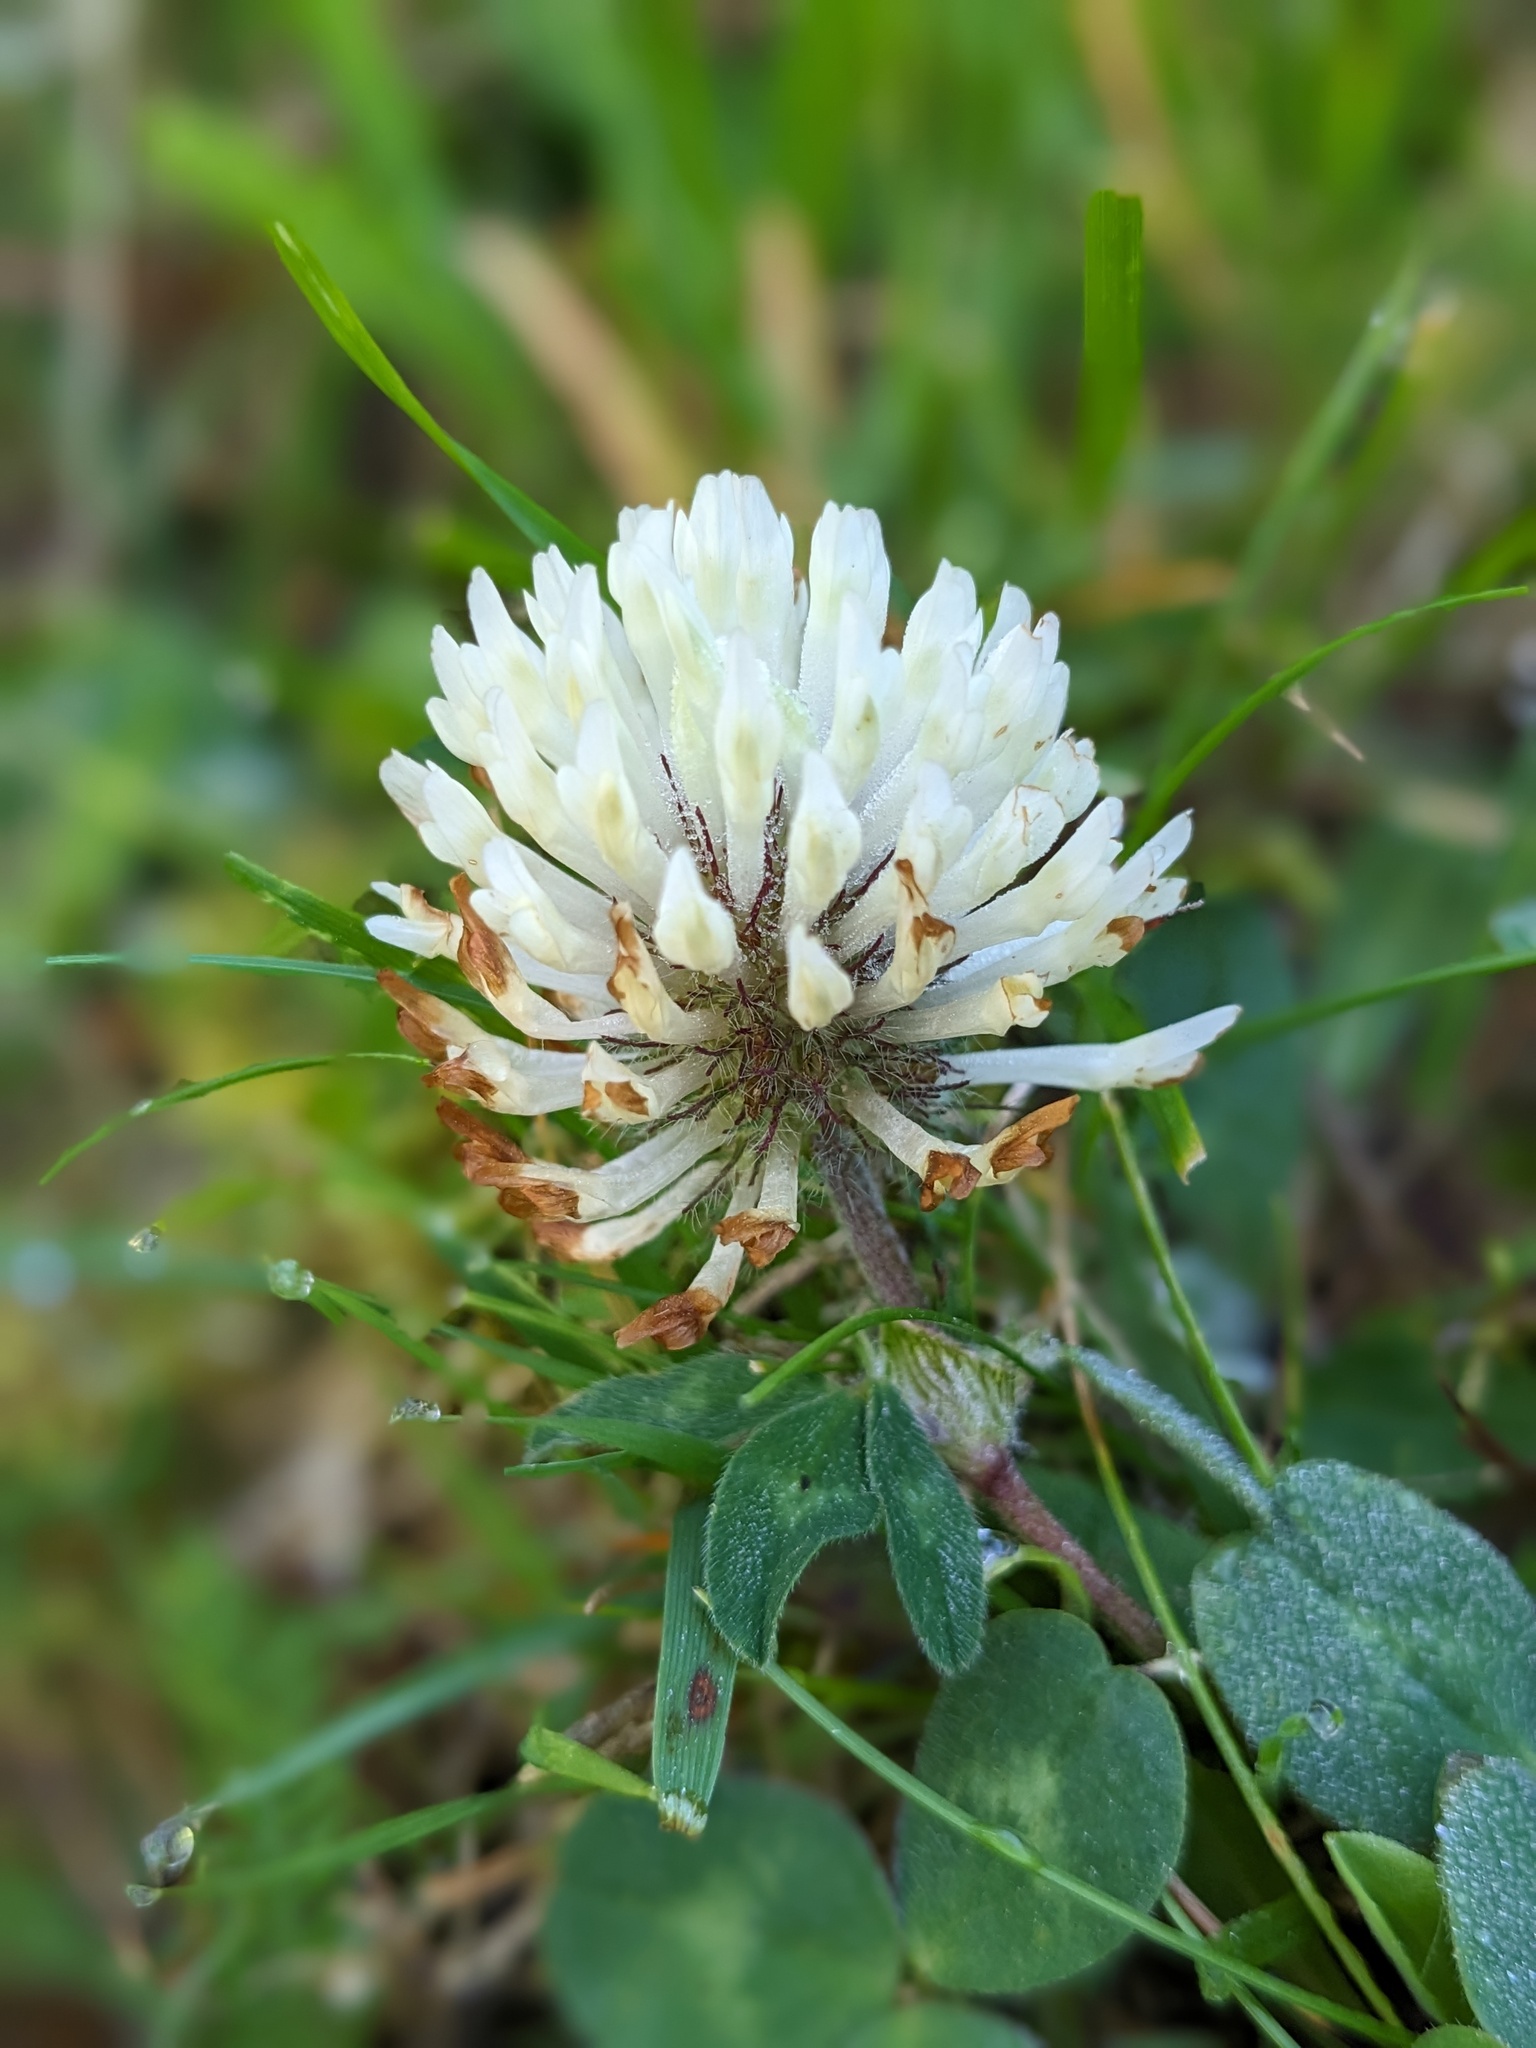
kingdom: Plantae
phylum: Tracheophyta
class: Magnoliopsida
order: Fabales
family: Fabaceae
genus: Trifolium
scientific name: Trifolium pratense
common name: Red clover
